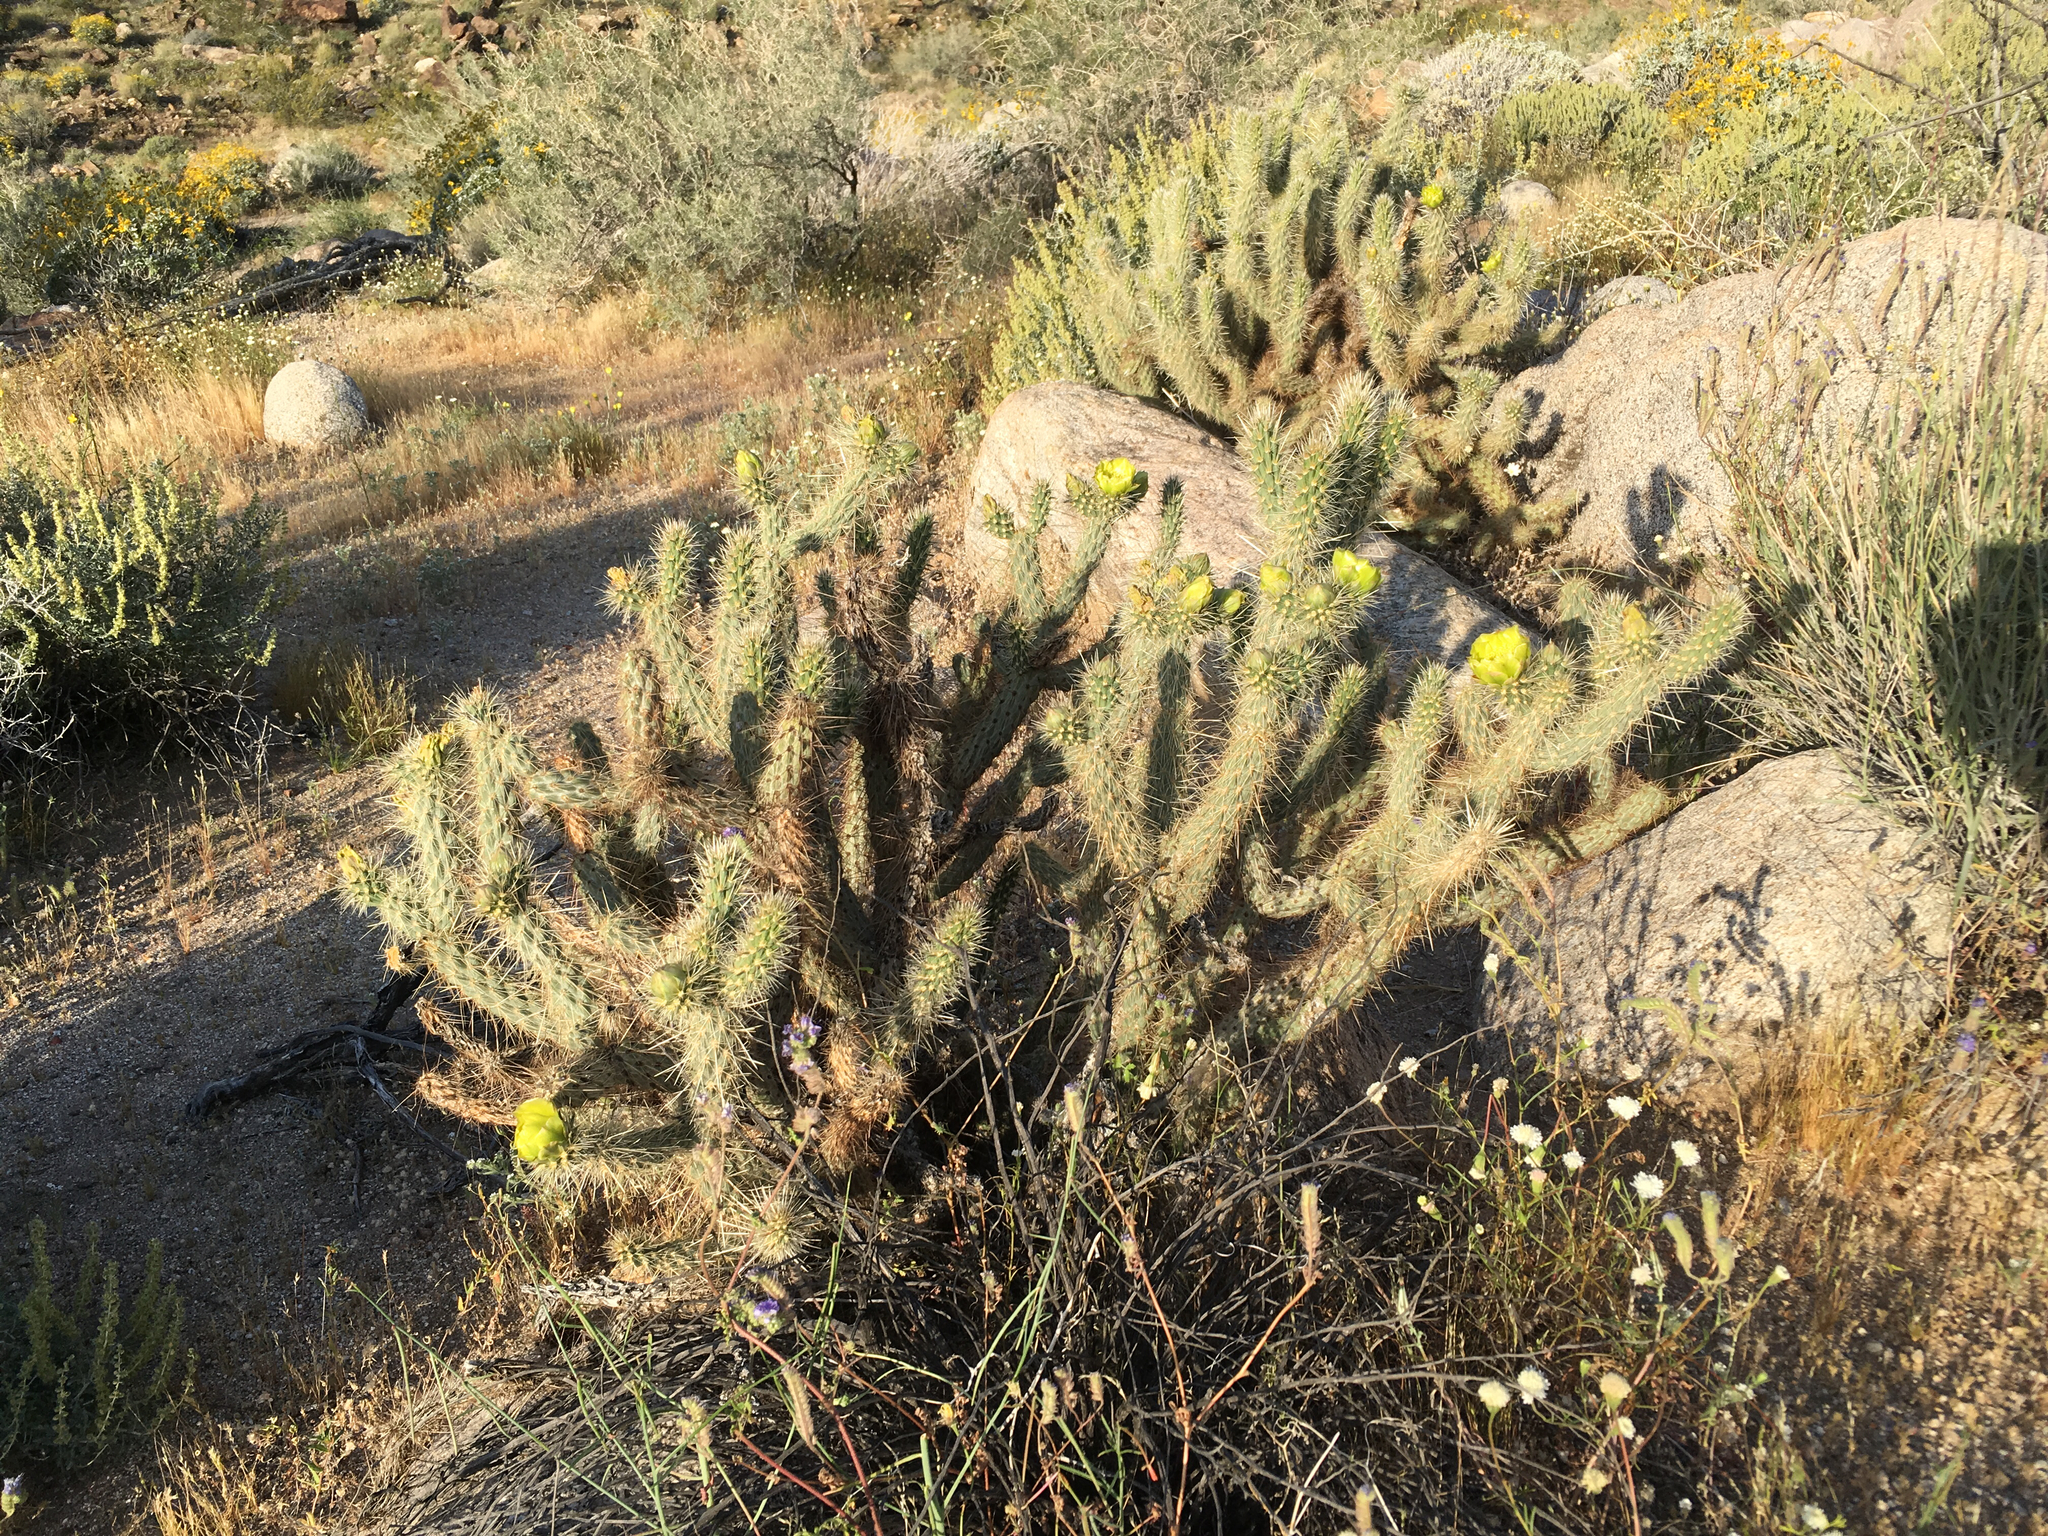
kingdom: Plantae
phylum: Tracheophyta
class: Magnoliopsida
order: Caryophyllales
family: Cactaceae
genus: Cylindropuntia
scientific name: Cylindropuntia ganderi
